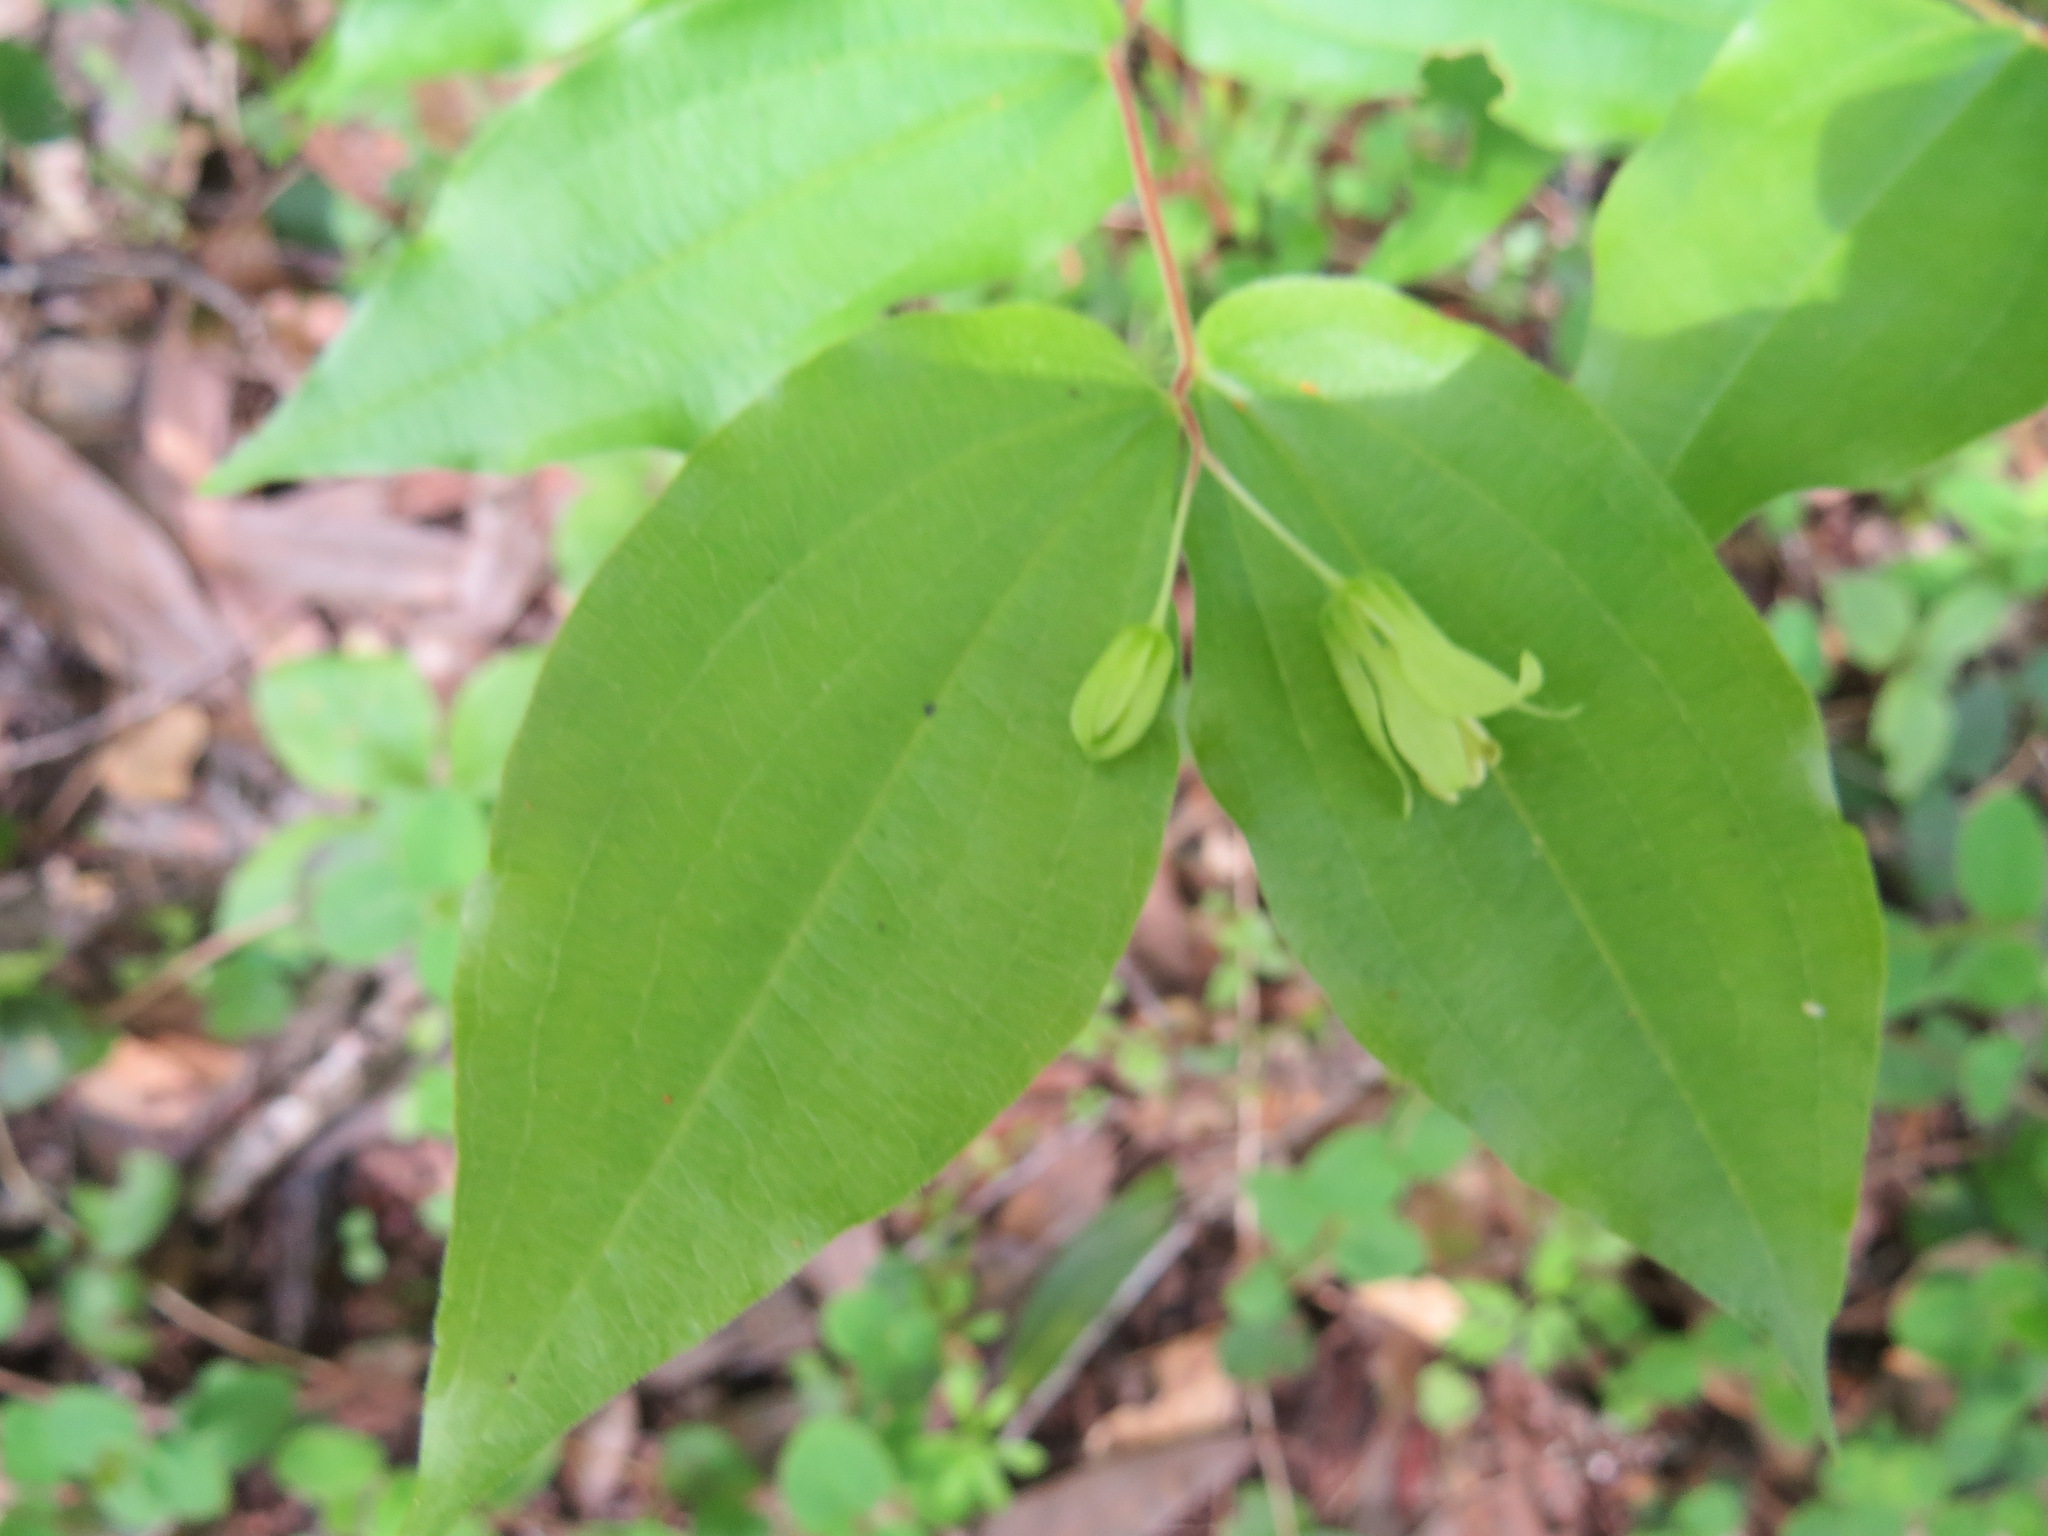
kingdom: Plantae
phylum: Tracheophyta
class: Liliopsida
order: Liliales
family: Liliaceae
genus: Prosartes
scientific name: Prosartes hookeri
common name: Fairy-bells
